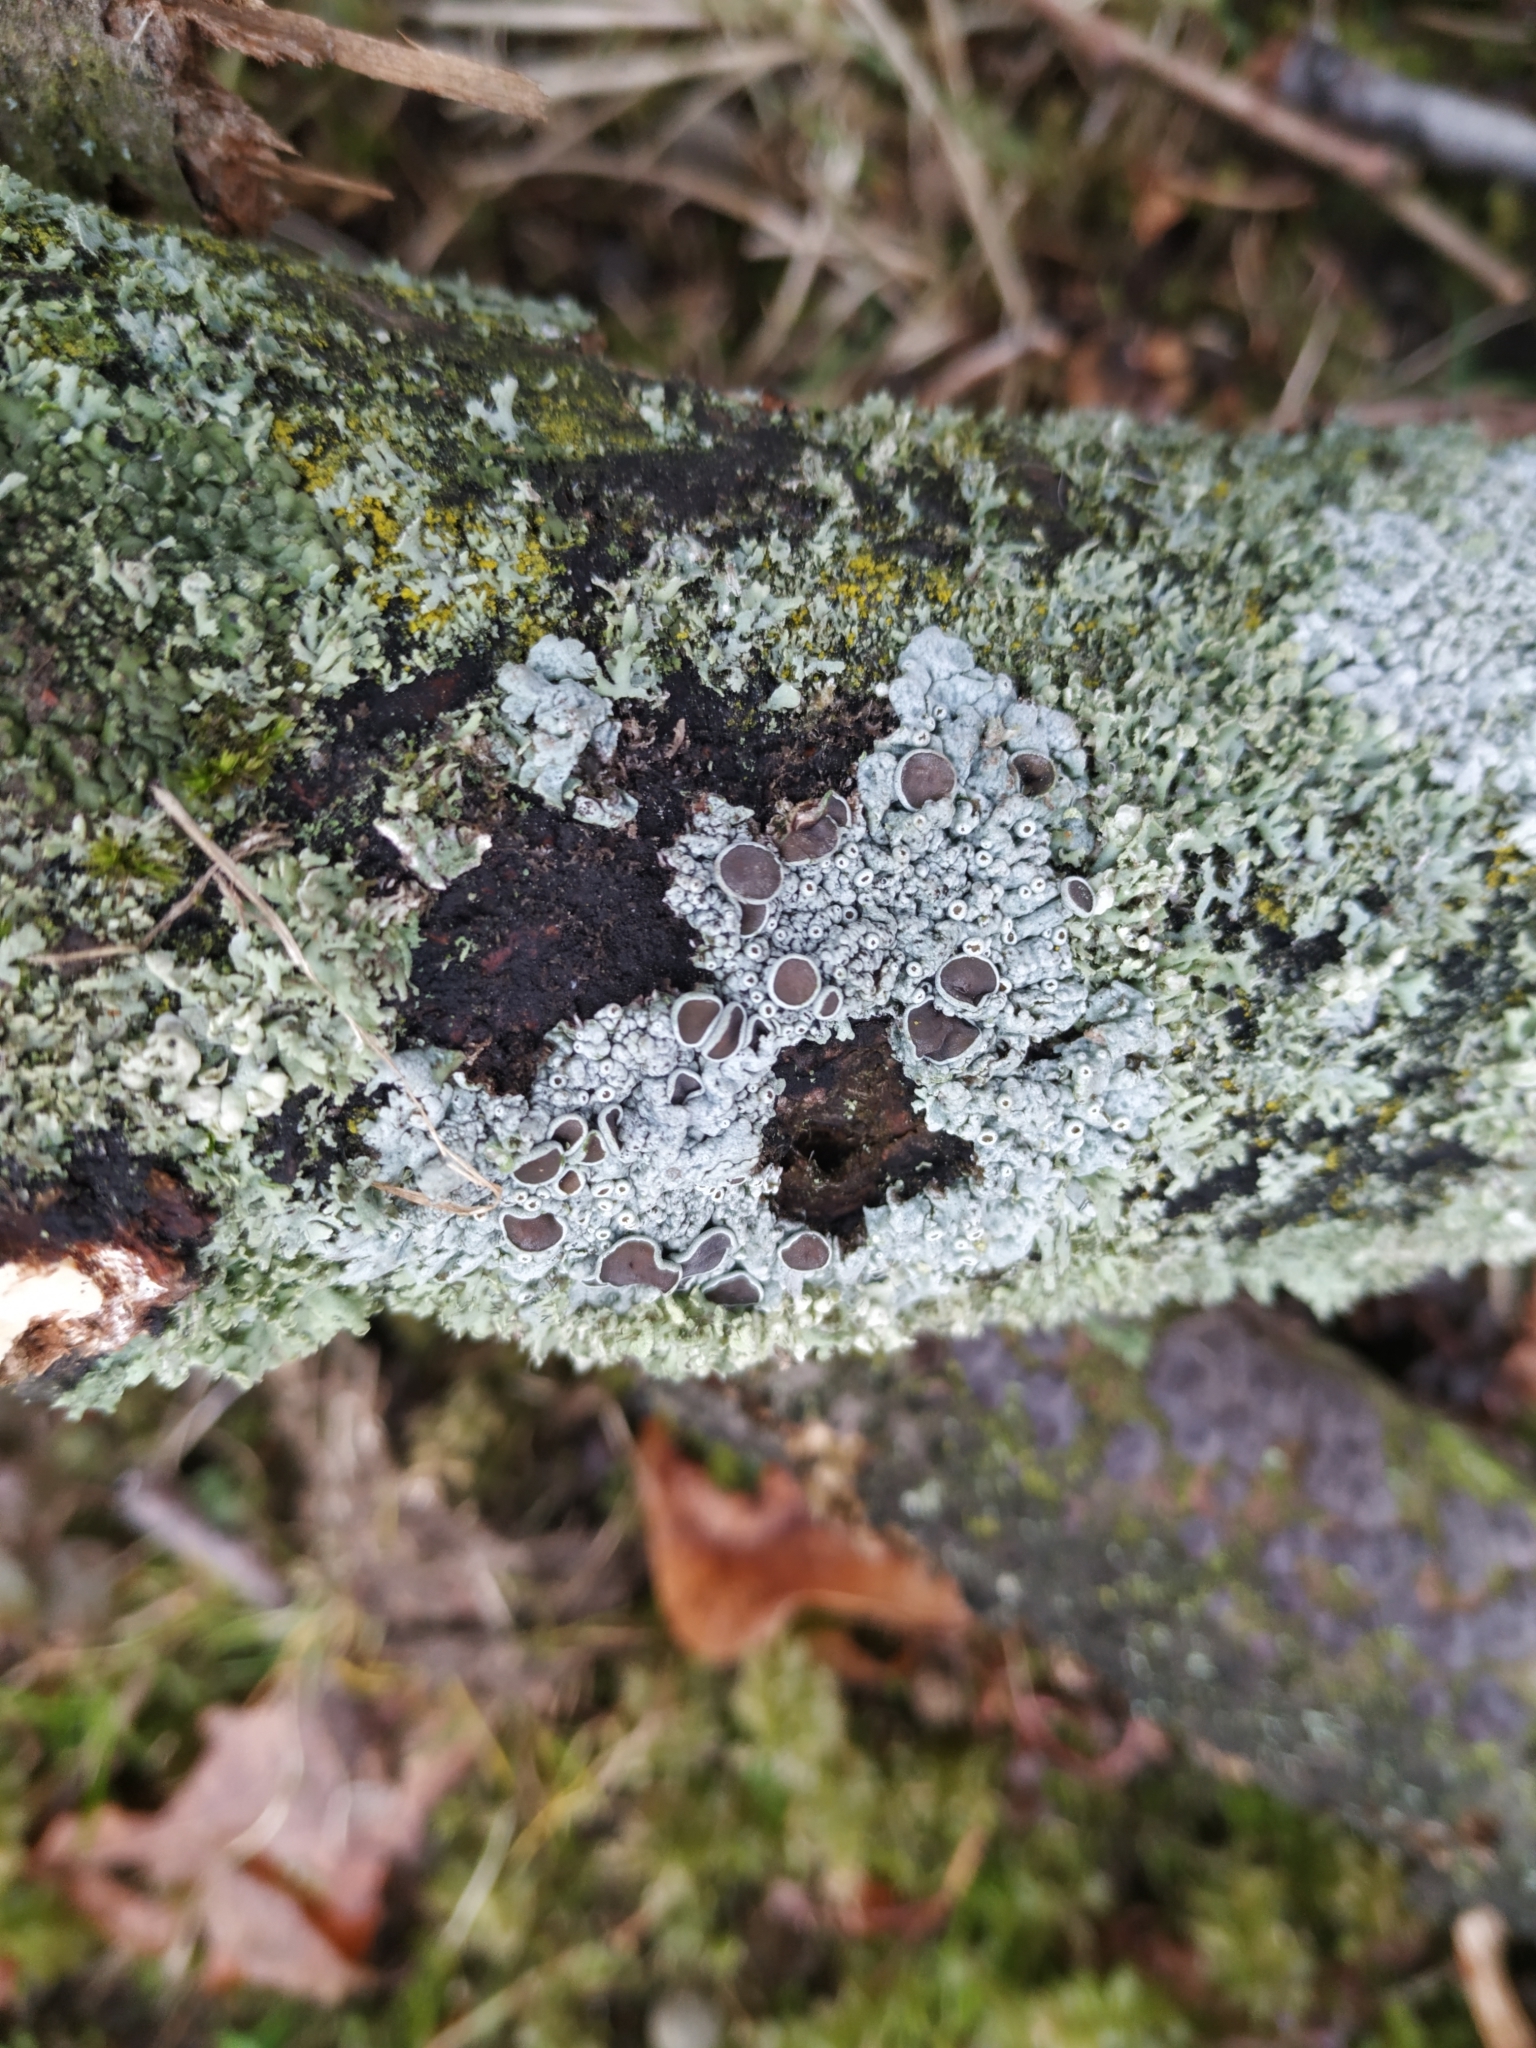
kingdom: Fungi
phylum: Ascomycota
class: Lecanoromycetes
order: Caliciales
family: Physciaceae
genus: Physcia
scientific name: Physcia stellaris
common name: Star rosette lichen
